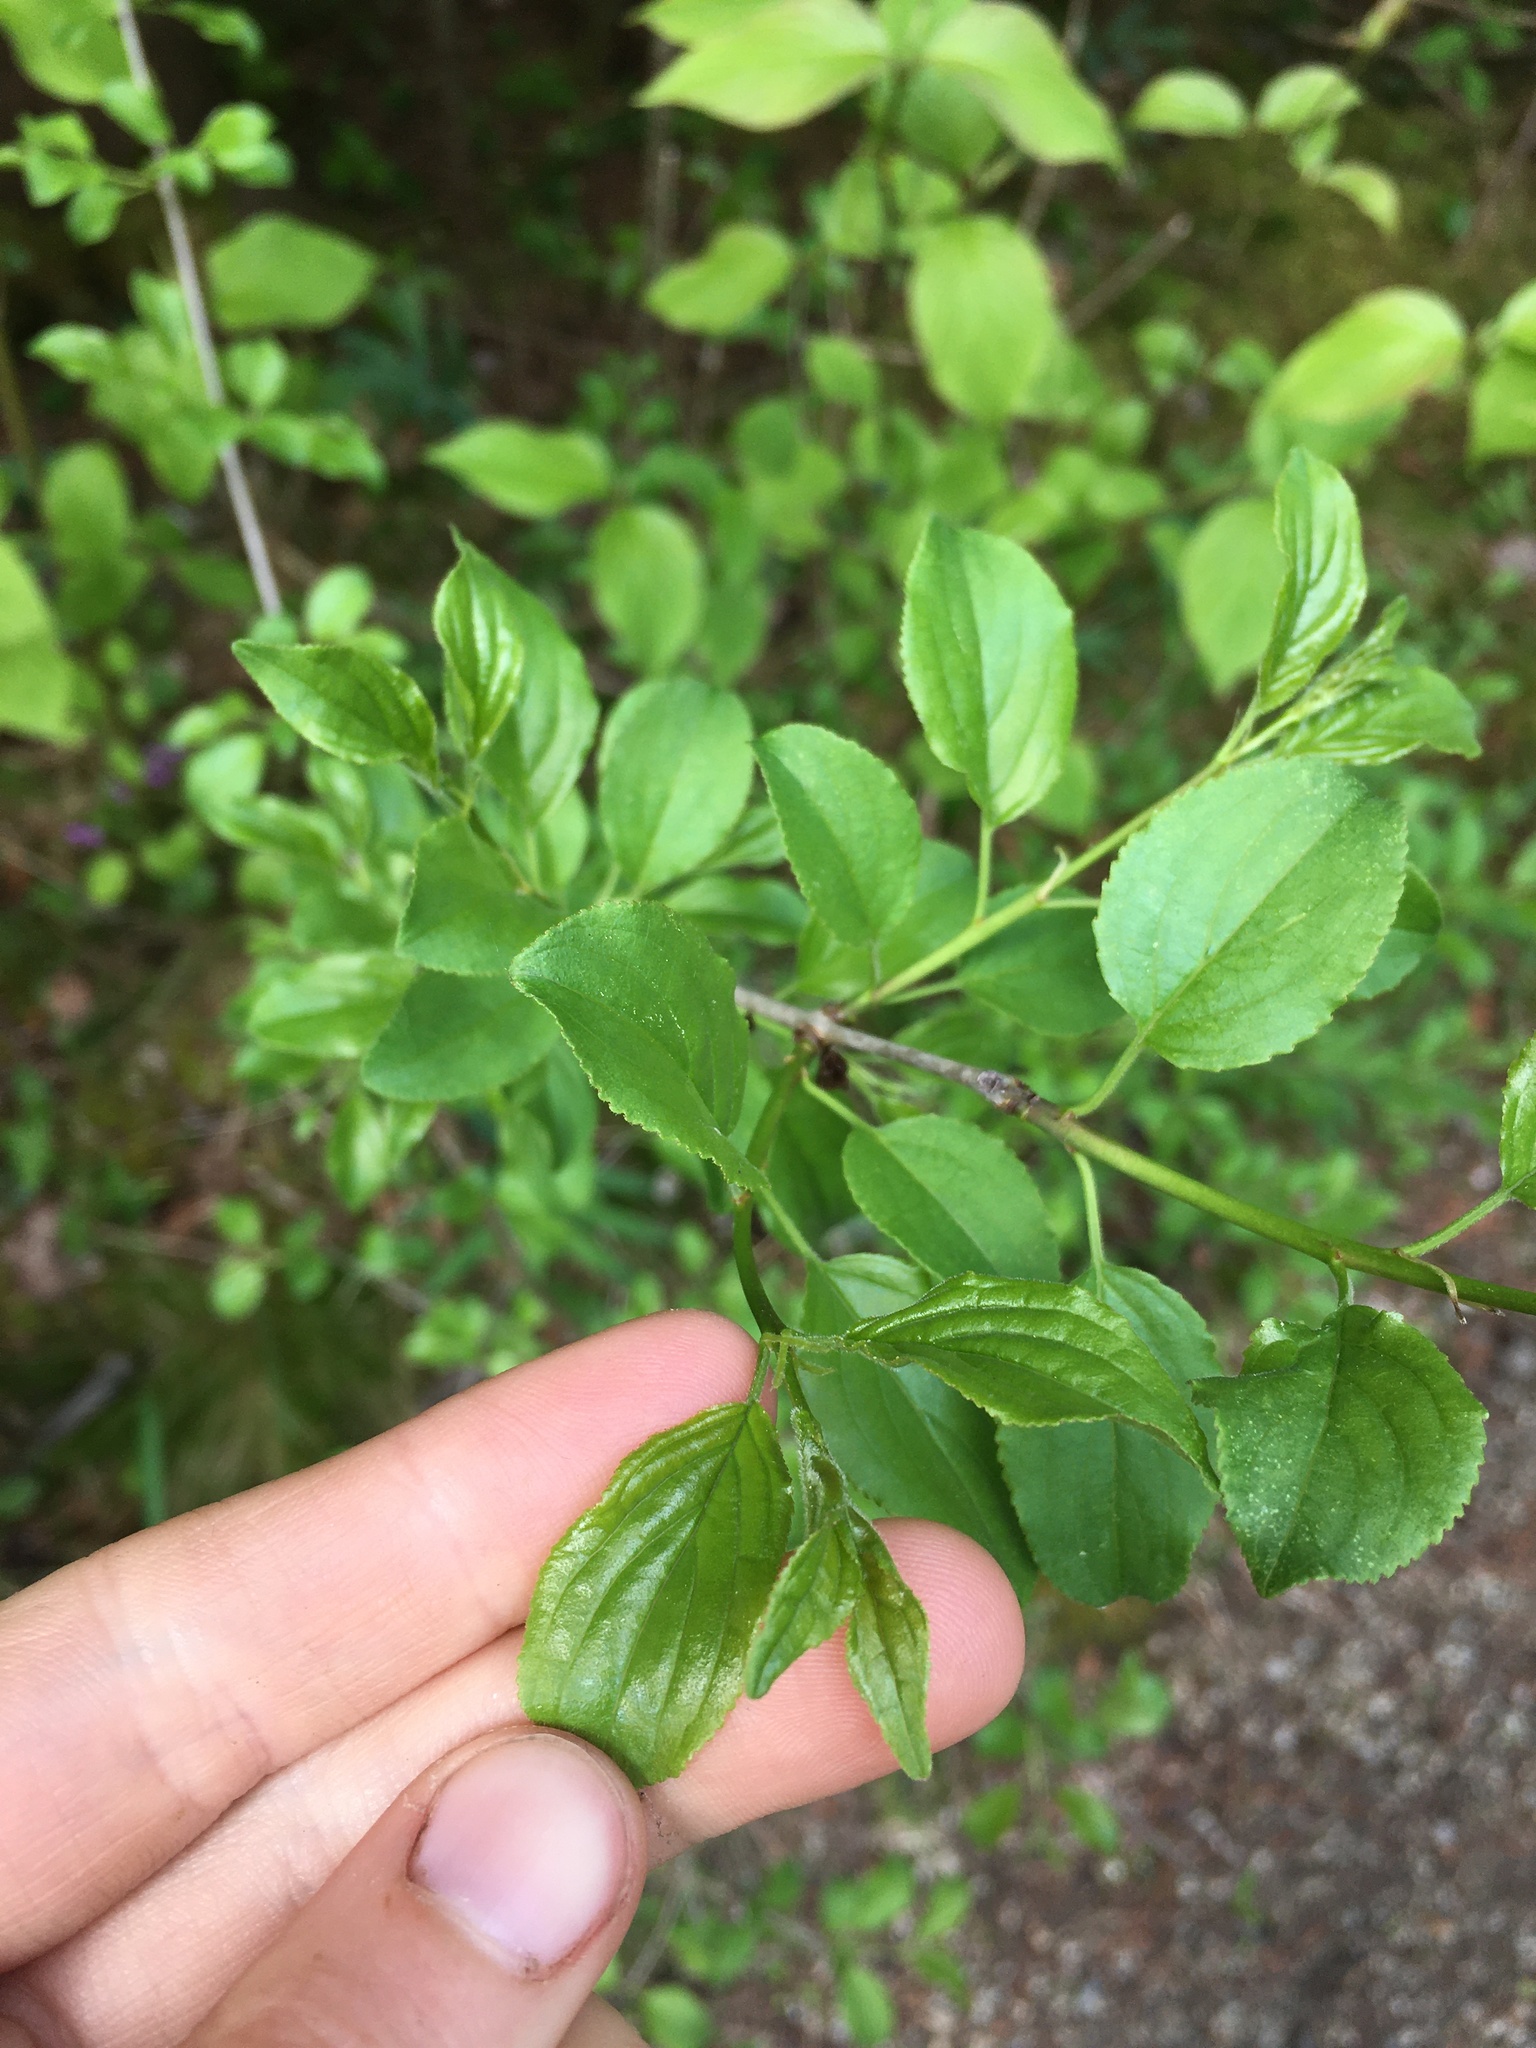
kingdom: Plantae
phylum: Tracheophyta
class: Magnoliopsida
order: Rosales
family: Rhamnaceae
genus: Rhamnus
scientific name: Rhamnus cathartica
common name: Common buckthorn
